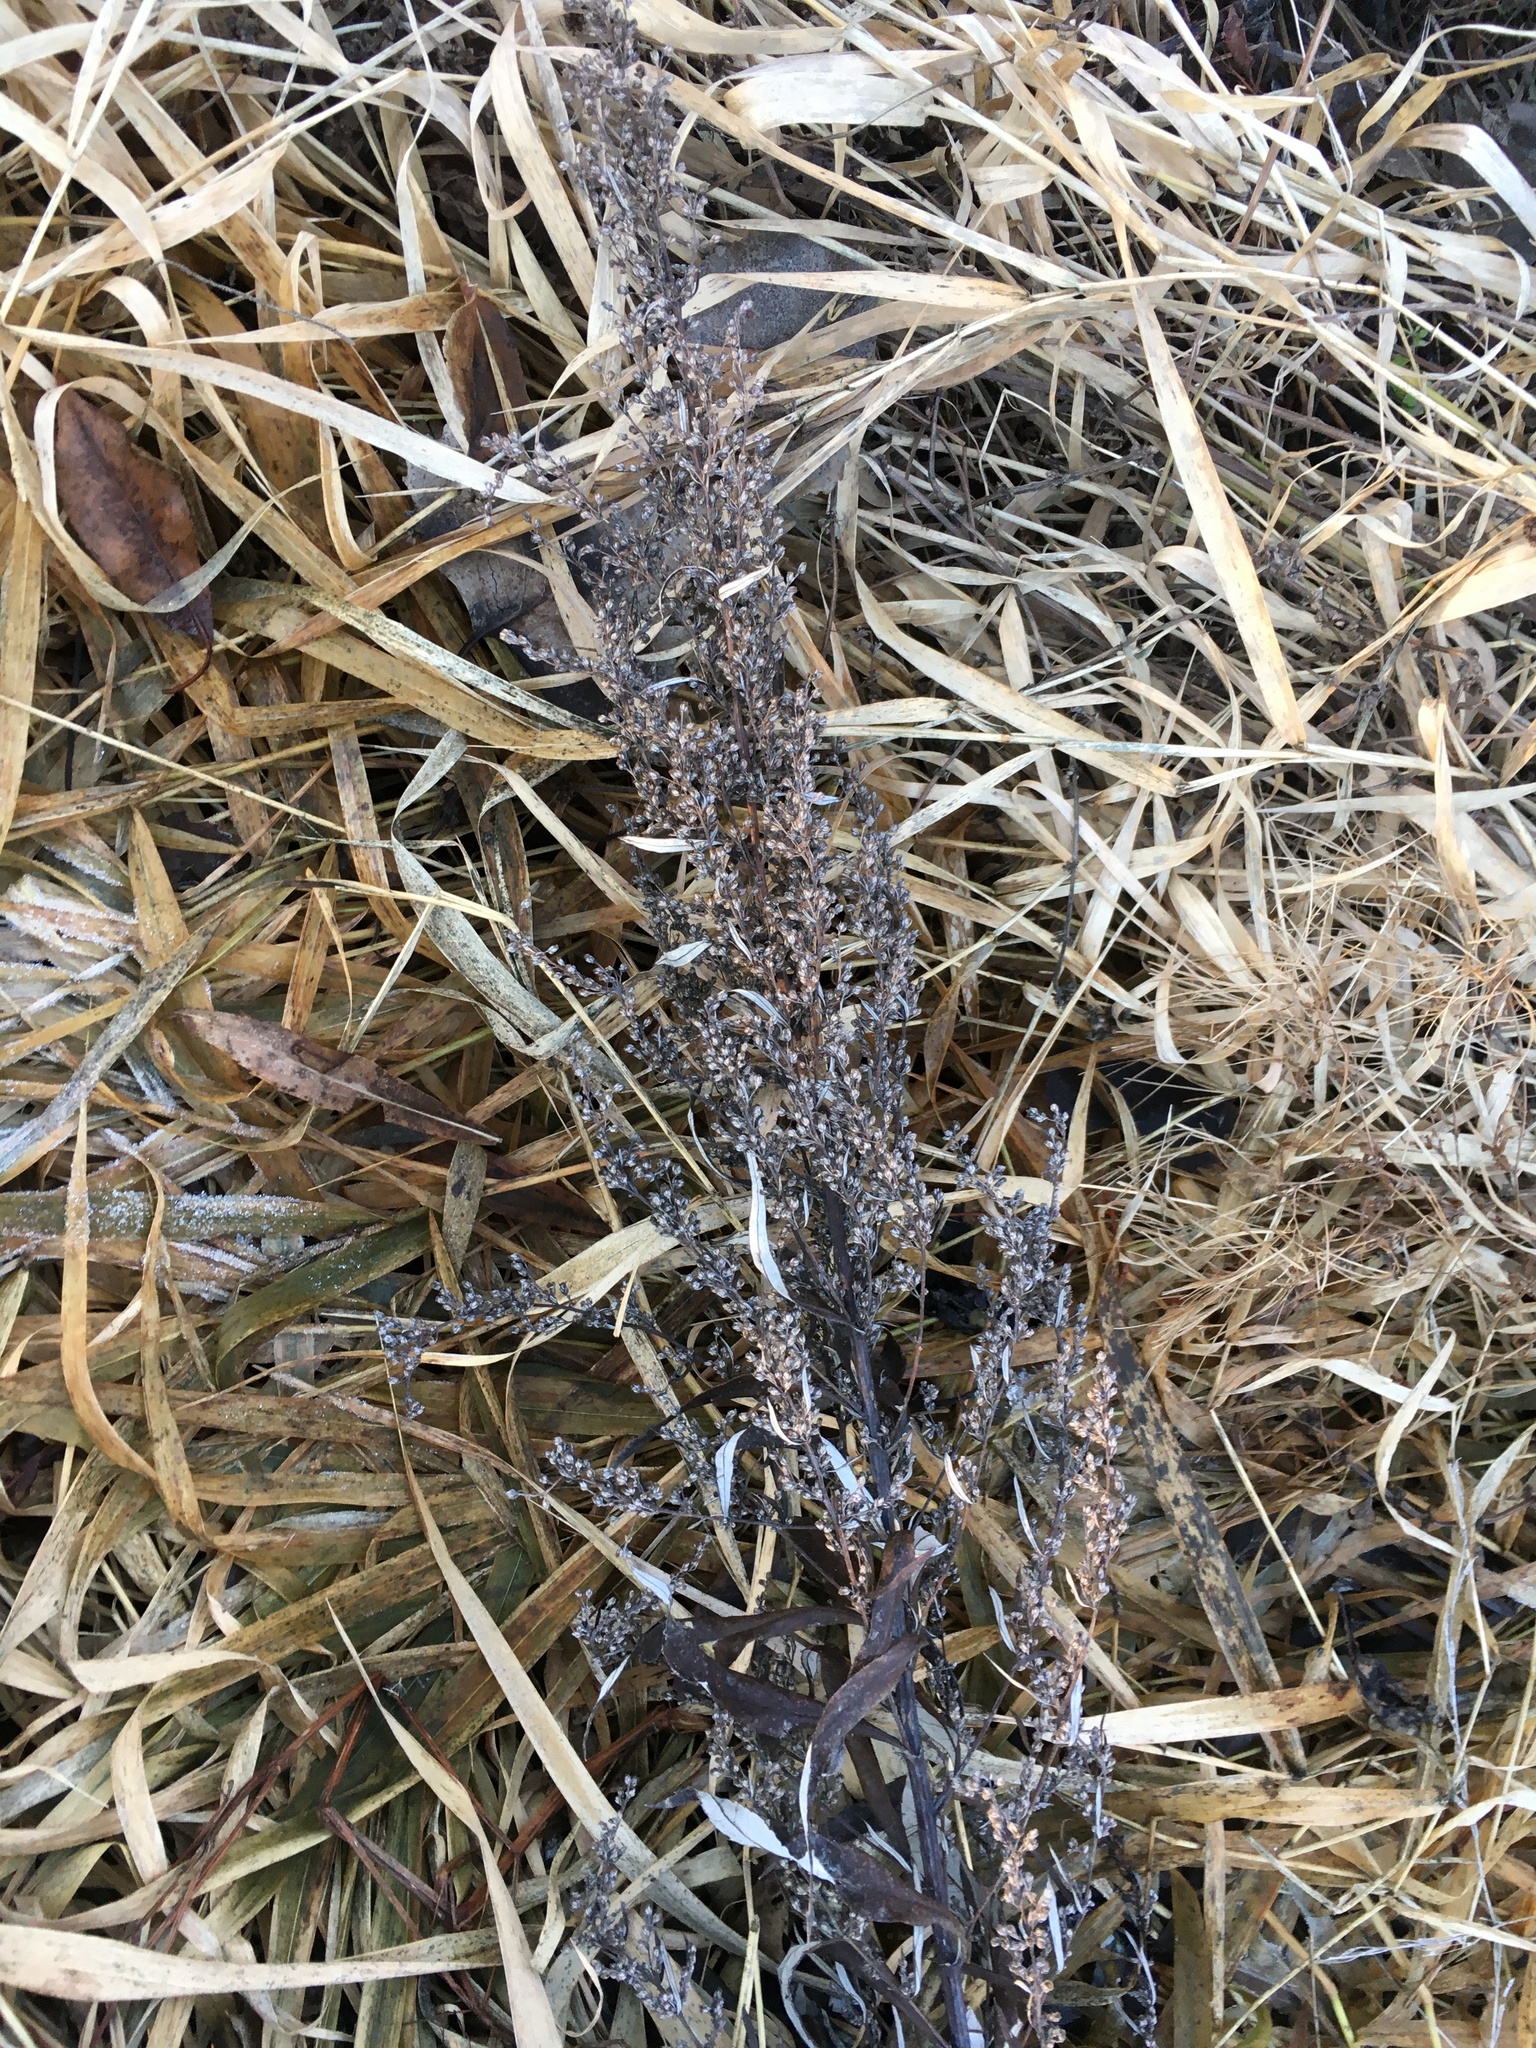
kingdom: Plantae
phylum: Tracheophyta
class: Magnoliopsida
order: Asterales
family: Asteraceae
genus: Artemisia
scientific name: Artemisia serrata
